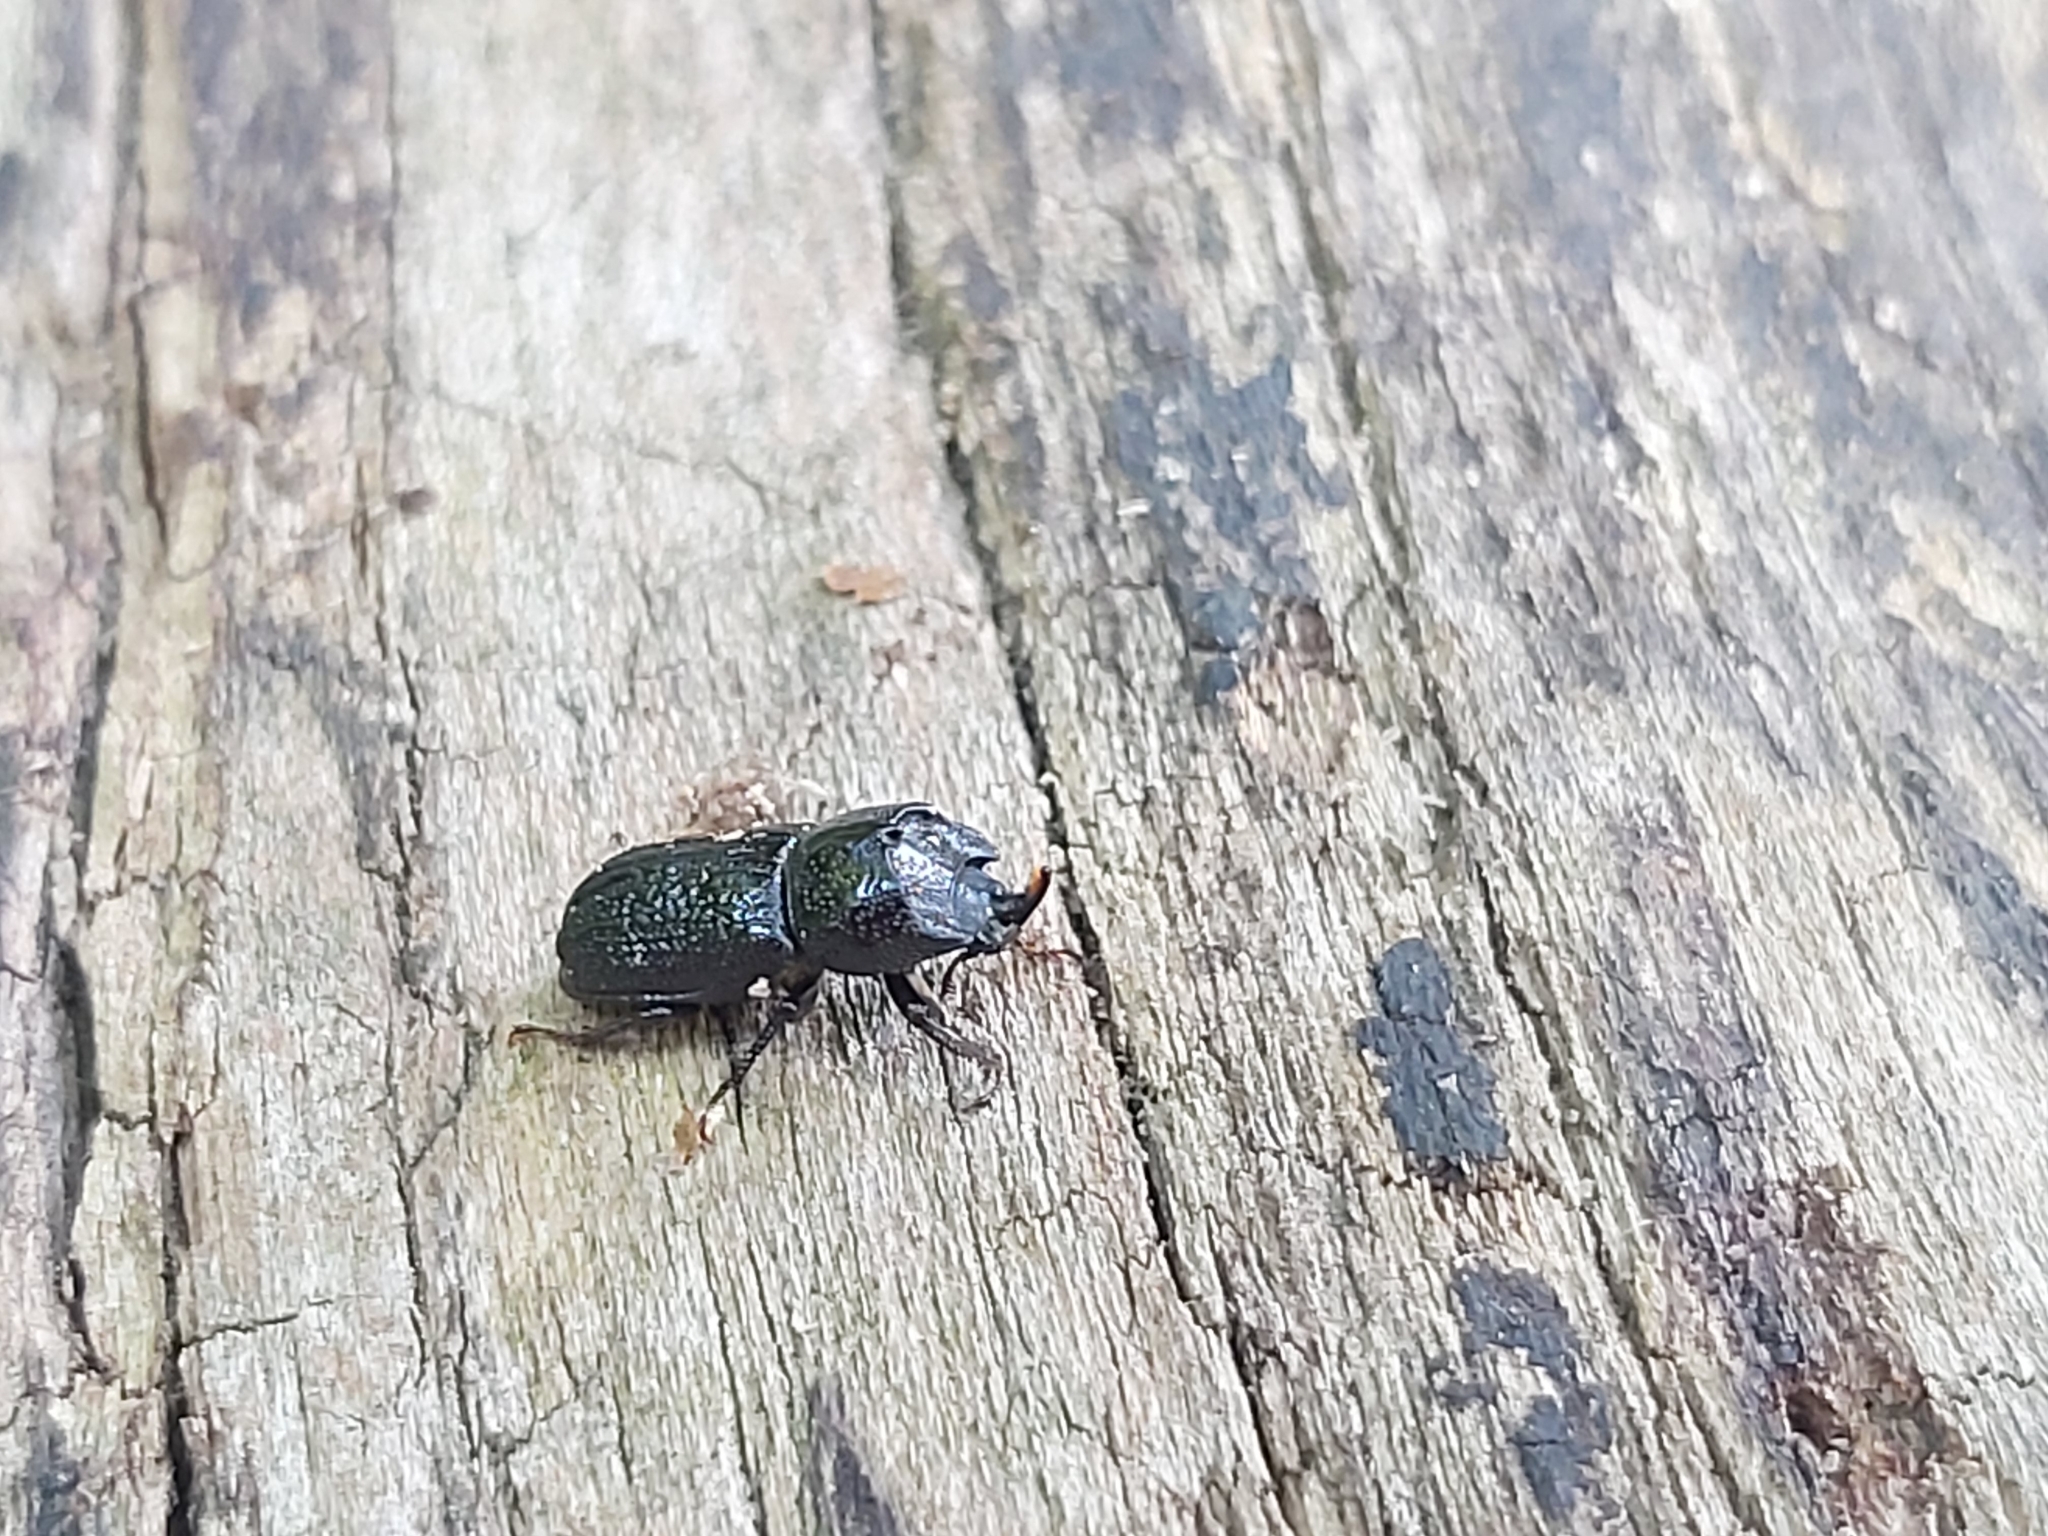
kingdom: Animalia
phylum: Arthropoda
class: Insecta
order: Coleoptera
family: Lucanidae
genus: Sinodendron
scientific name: Sinodendron cylindricum
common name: Rhinoceros beetle
